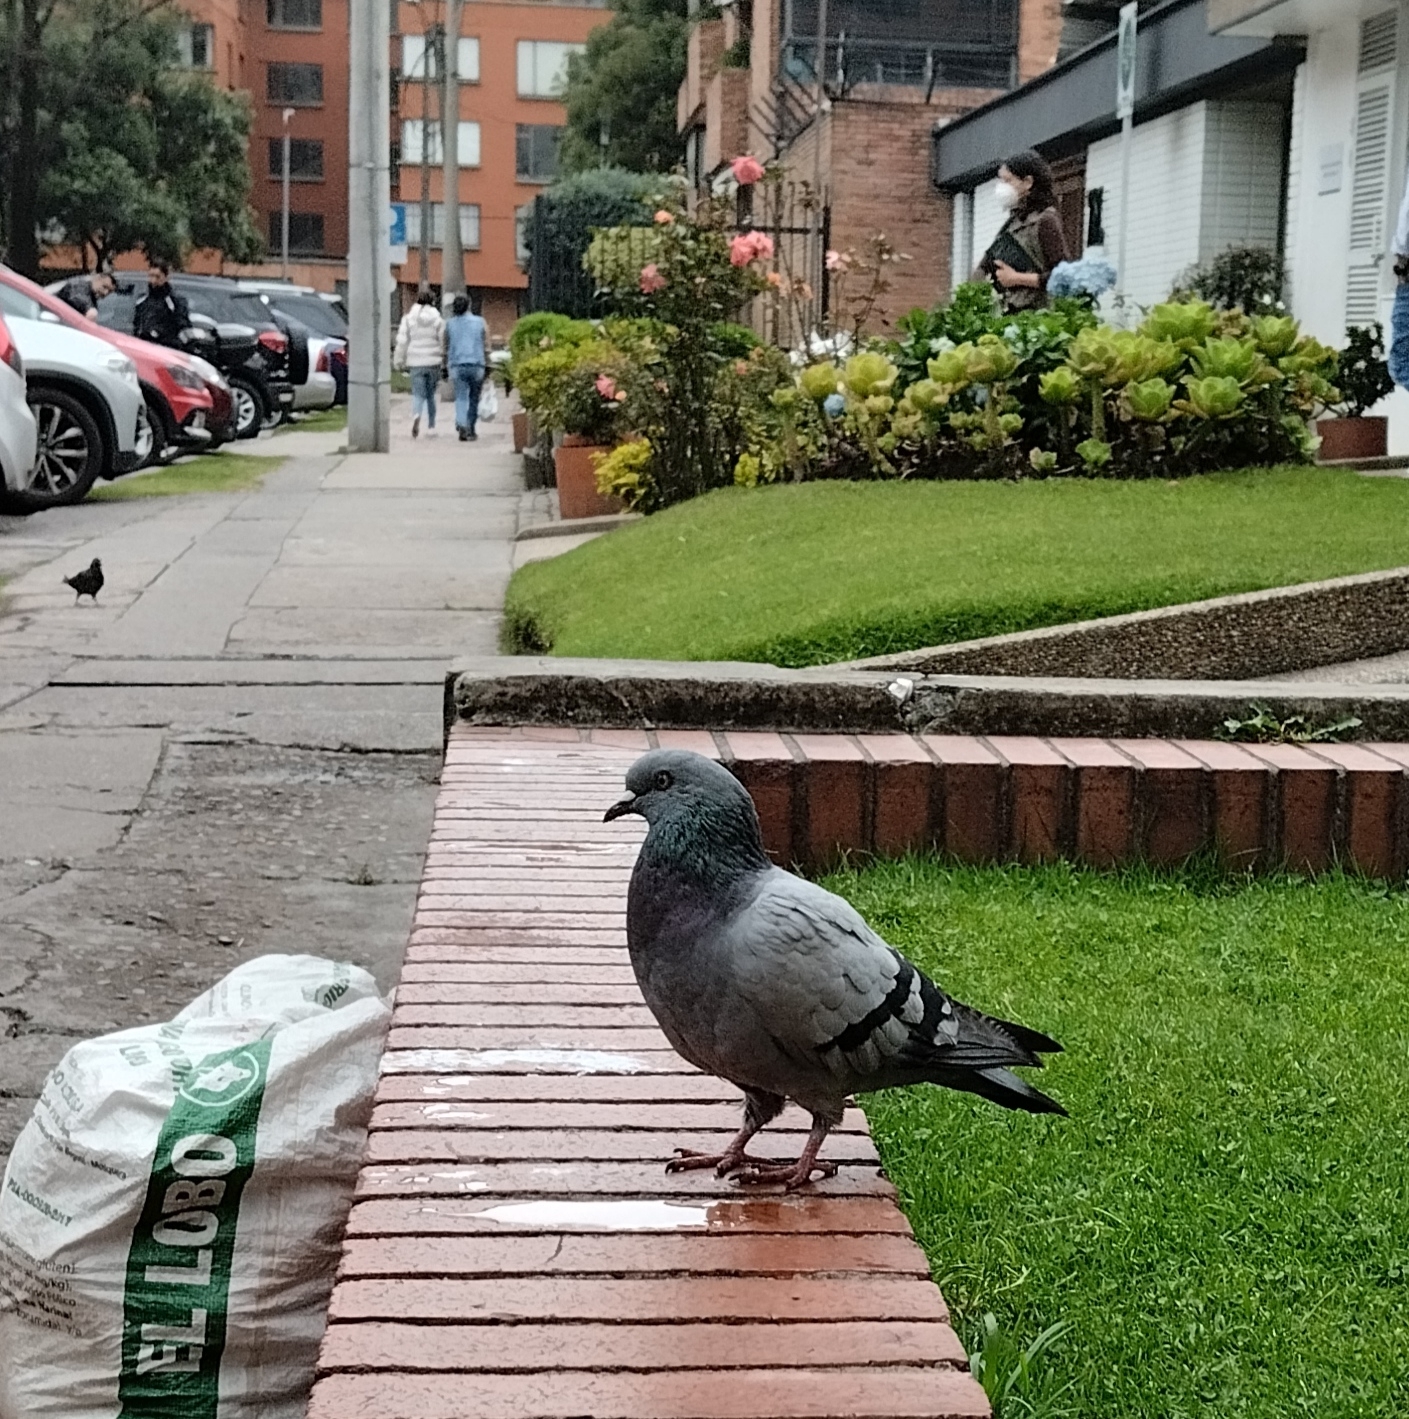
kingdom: Animalia
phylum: Chordata
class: Aves
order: Columbiformes
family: Columbidae
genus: Columba
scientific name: Columba livia
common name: Rock pigeon
